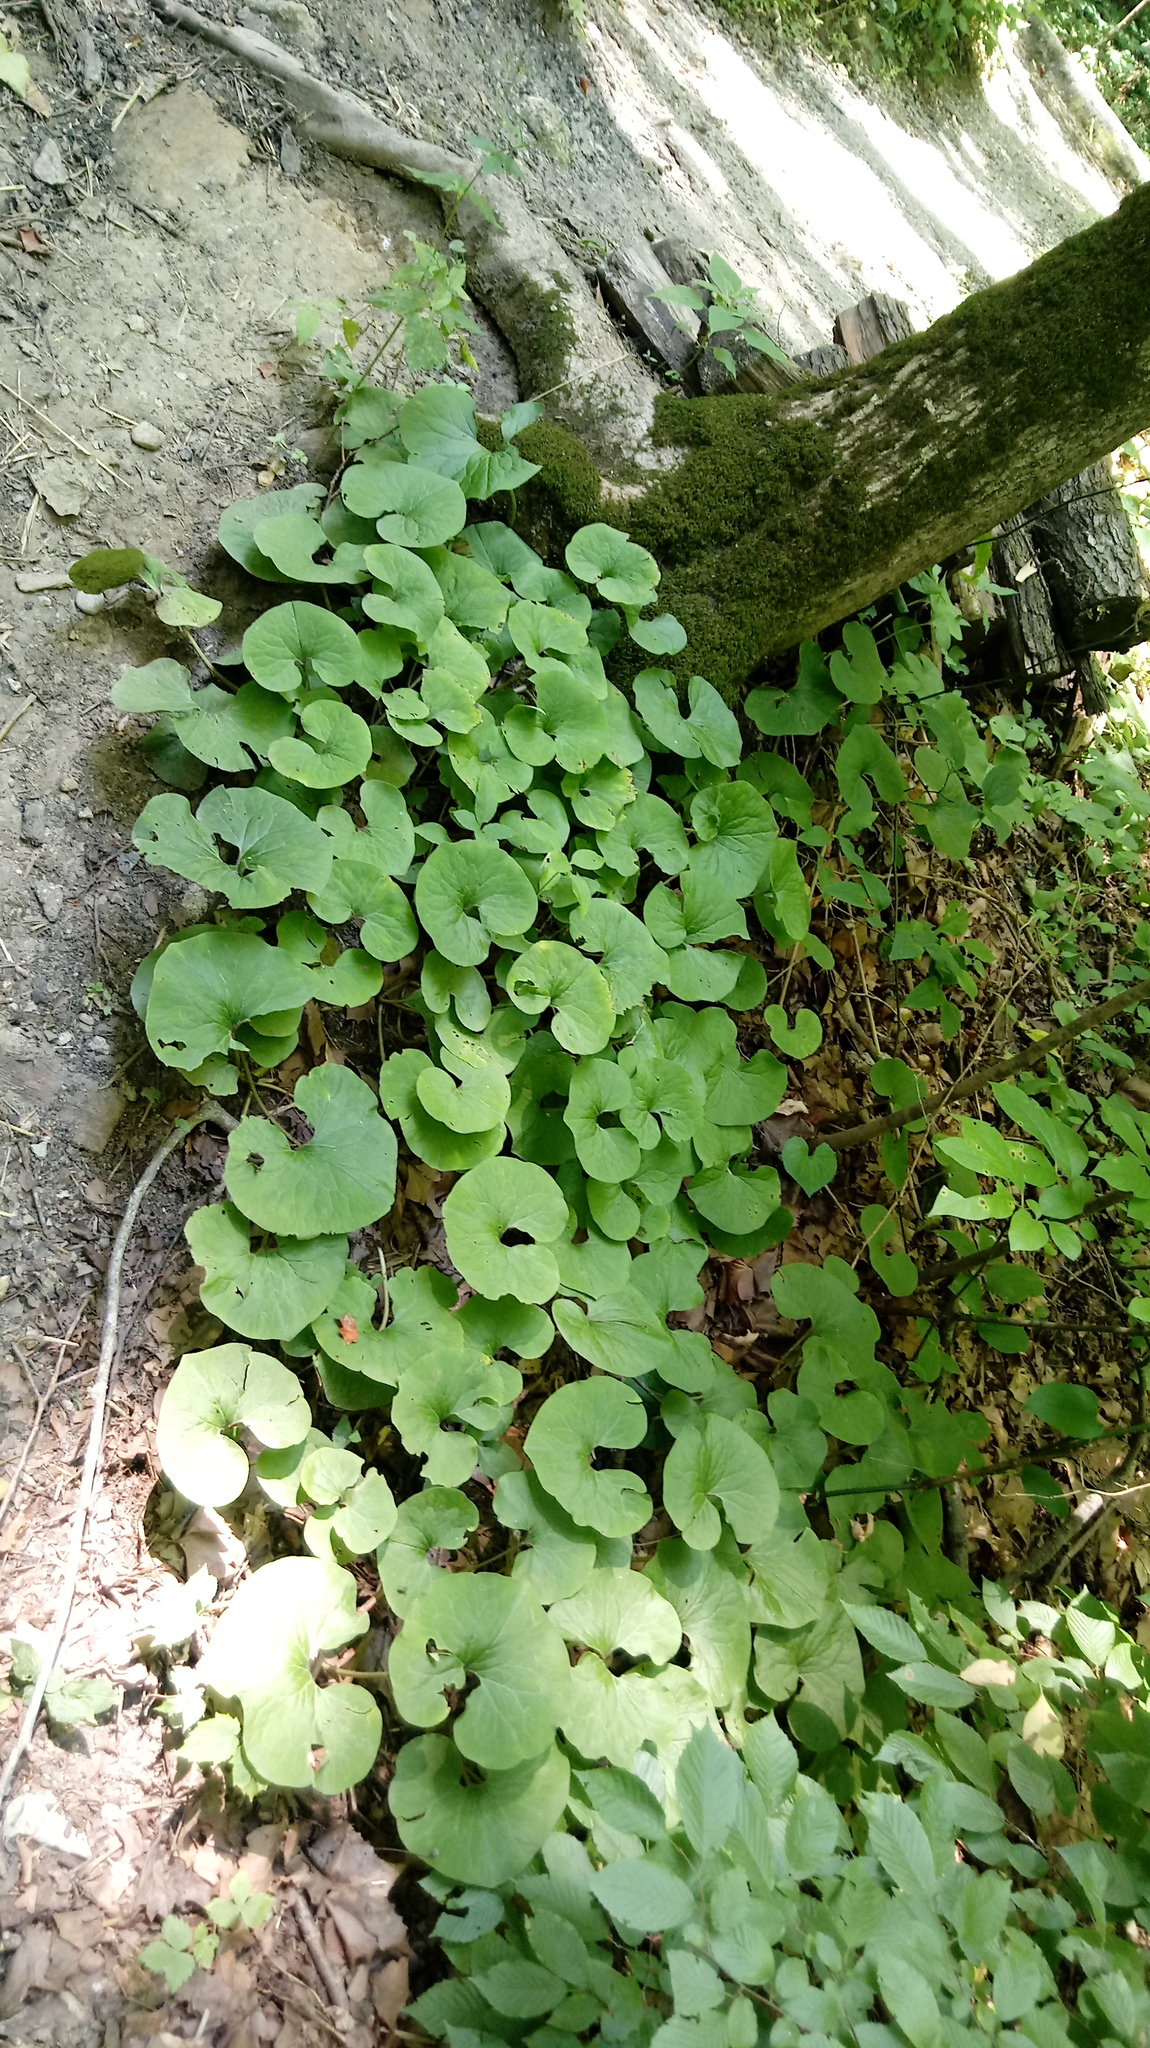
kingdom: Plantae
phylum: Tracheophyta
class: Magnoliopsida
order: Piperales
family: Aristolochiaceae
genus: Asarum
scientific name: Asarum canadense
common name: Wild ginger
